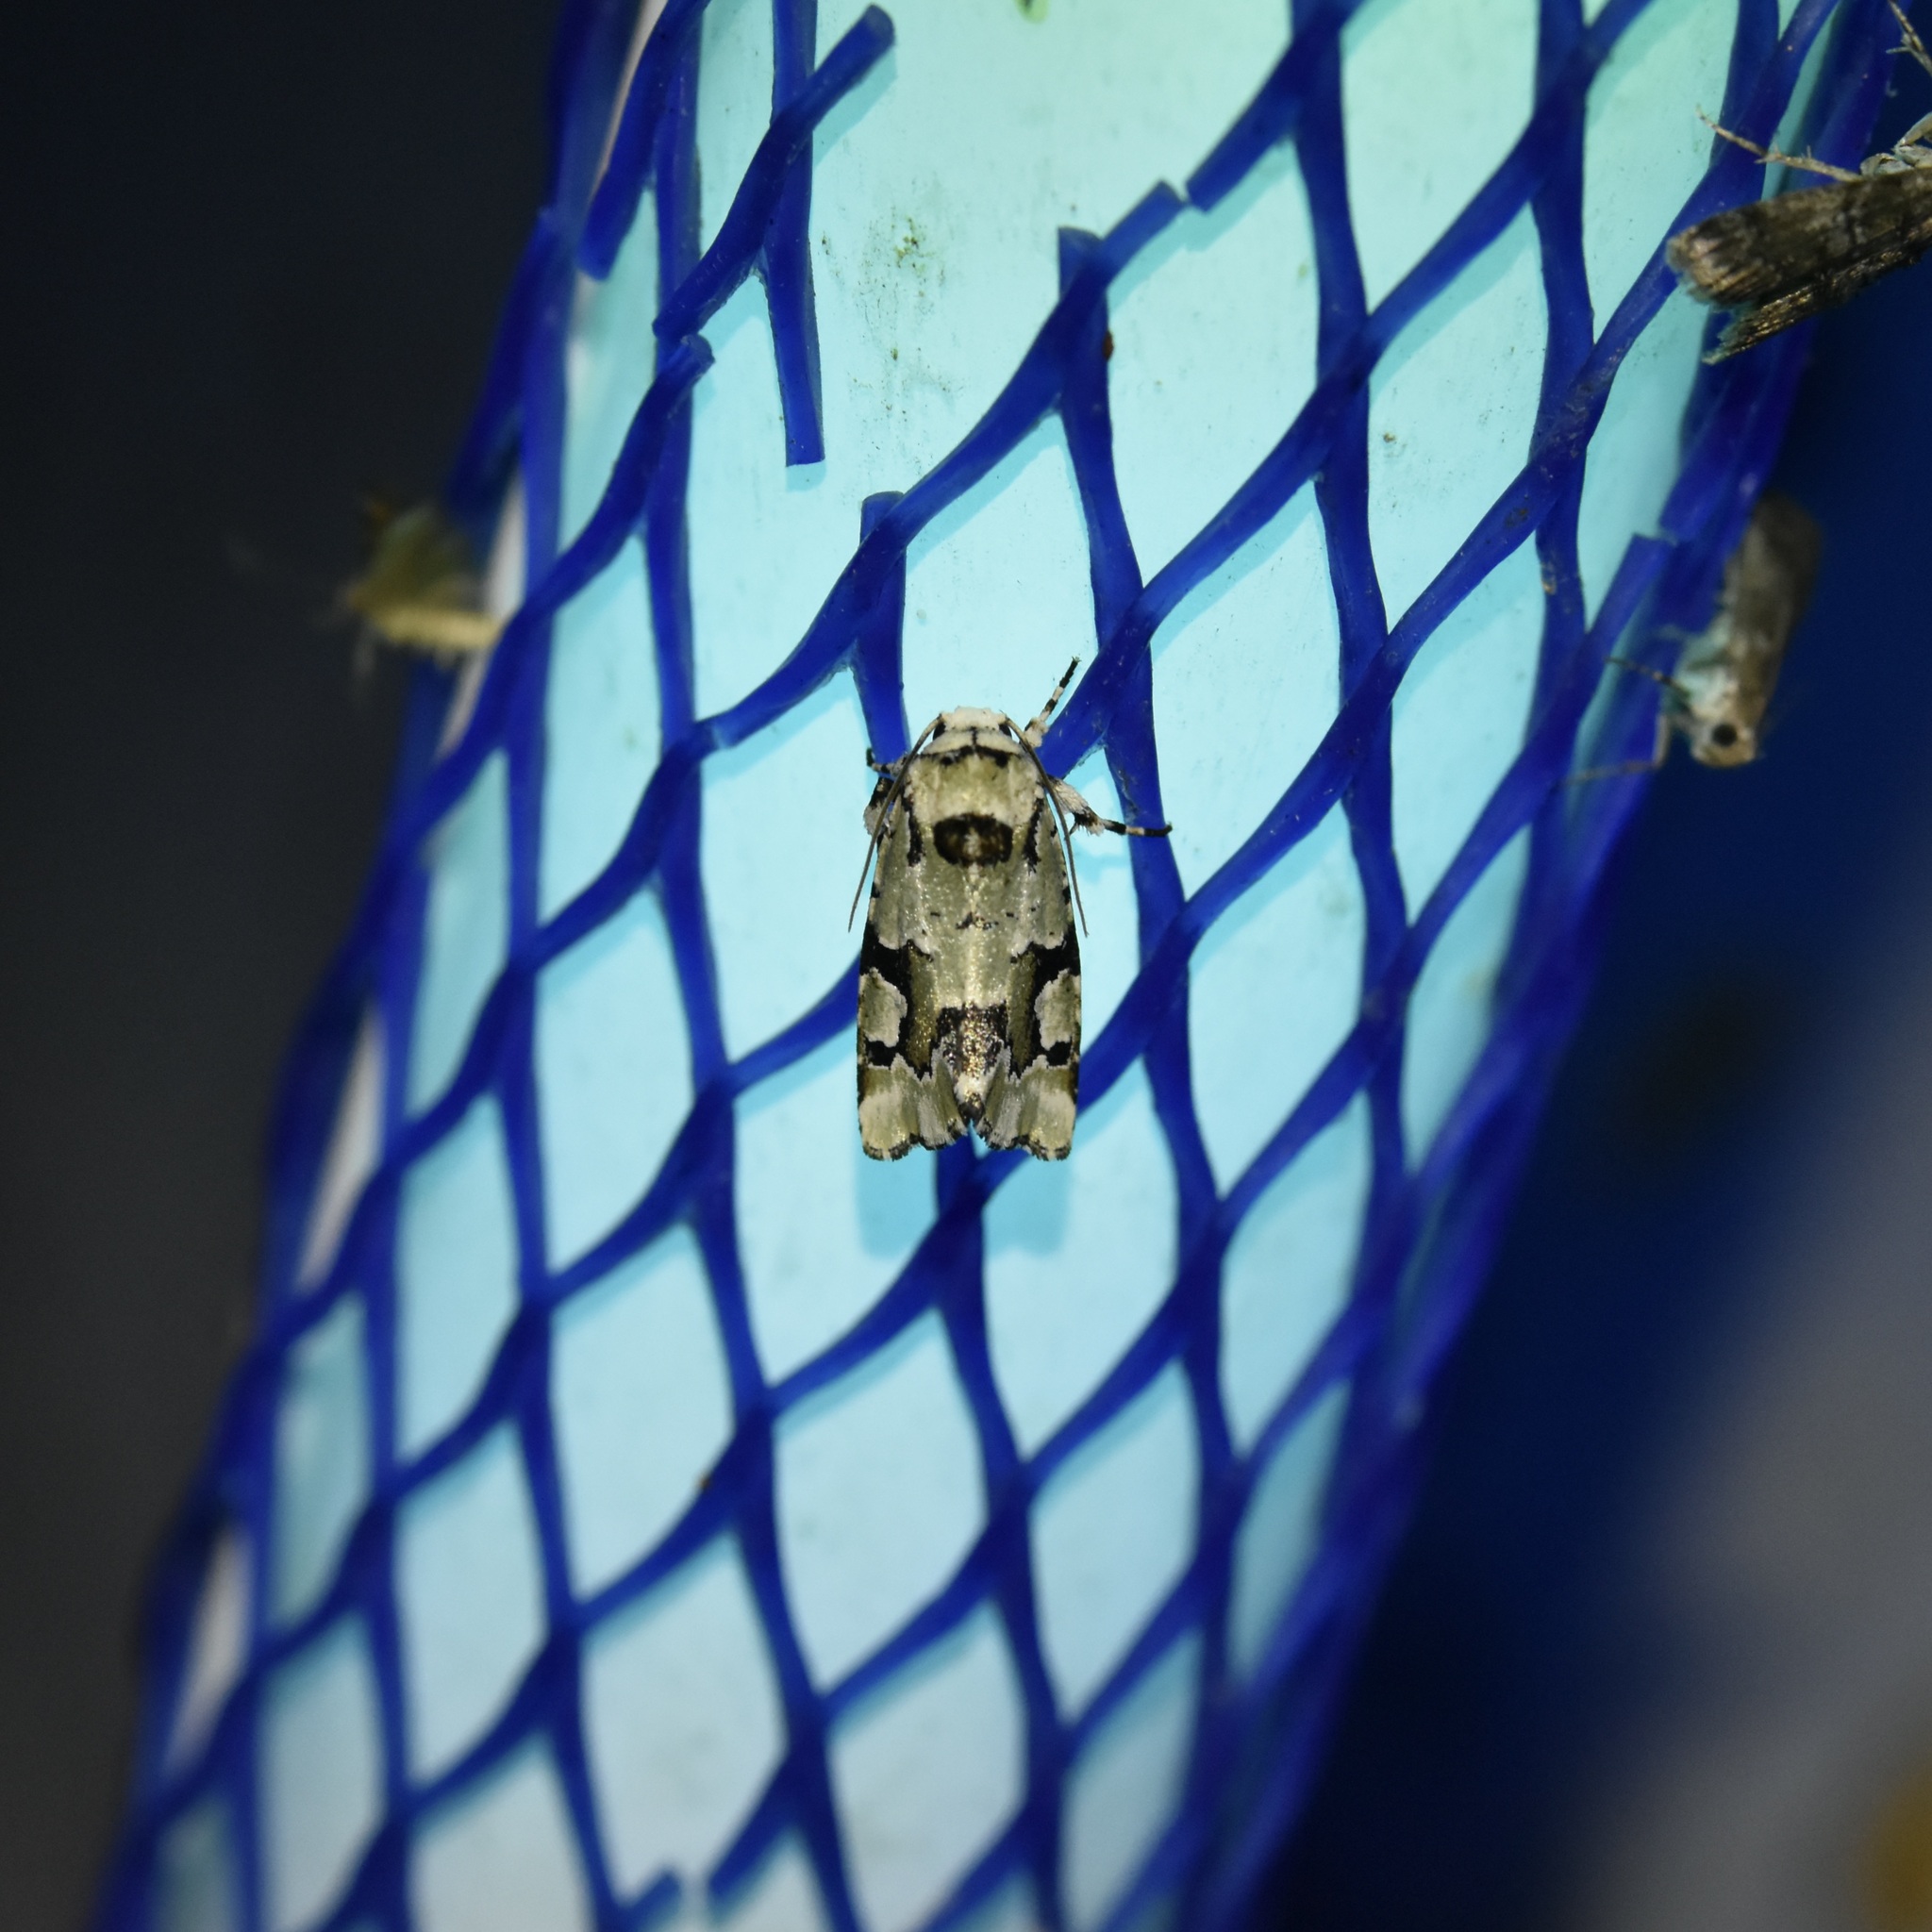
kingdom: Animalia
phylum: Arthropoda
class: Insecta
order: Lepidoptera
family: Noctuidae
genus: Emarginea
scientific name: Emarginea percara
